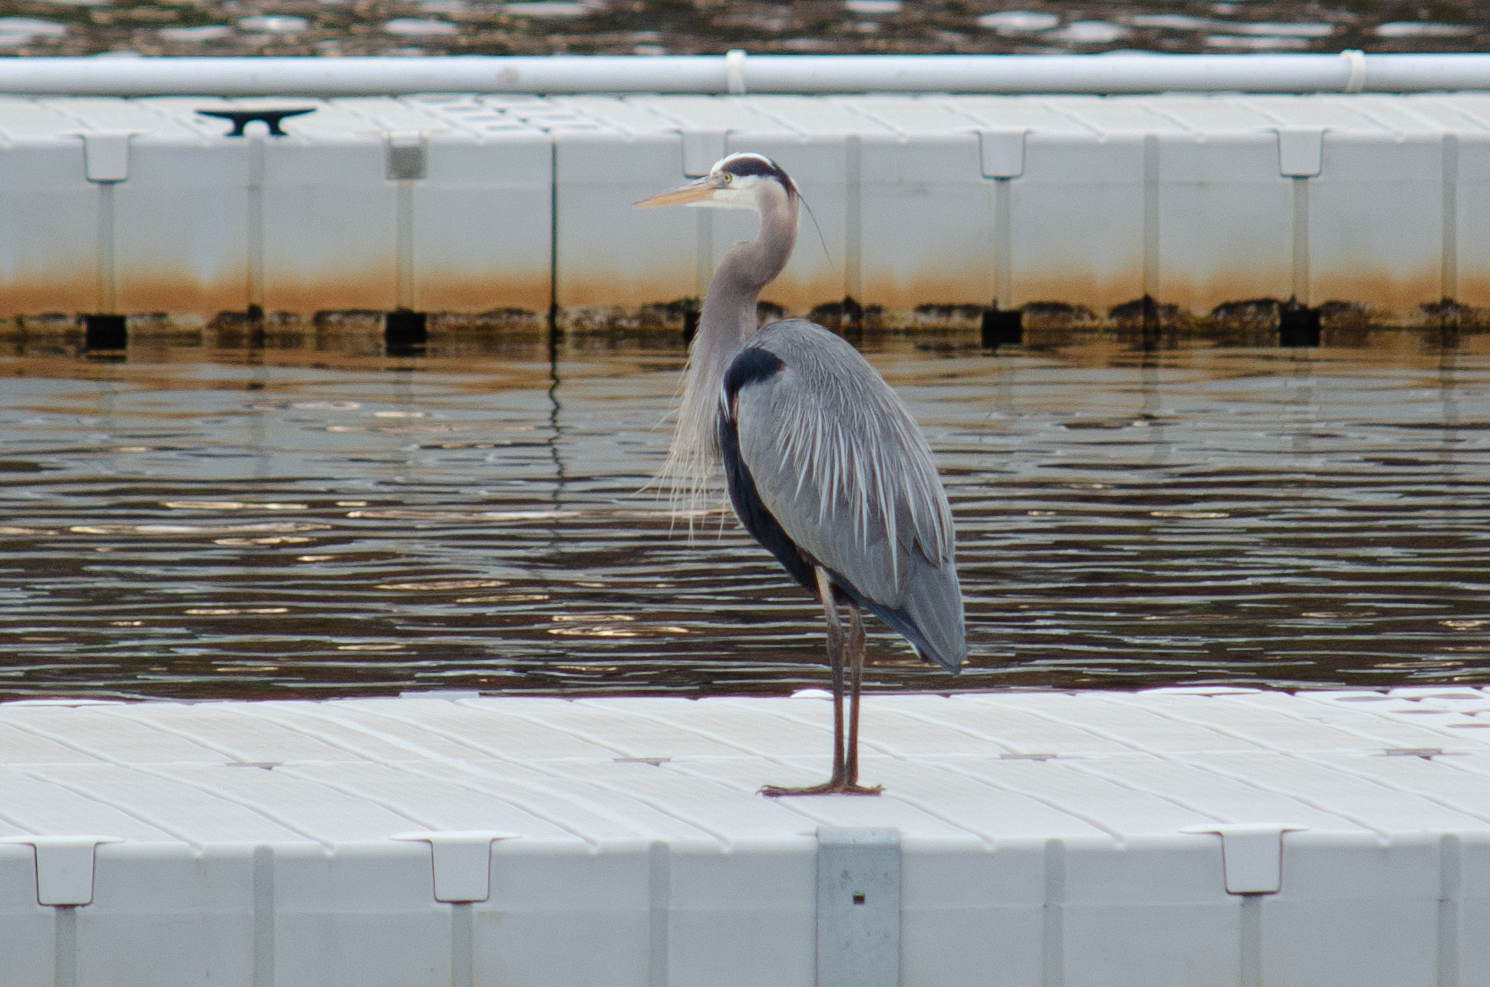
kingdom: Animalia
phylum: Chordata
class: Aves
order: Pelecaniformes
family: Ardeidae
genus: Ardea
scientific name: Ardea herodias
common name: Great blue heron
